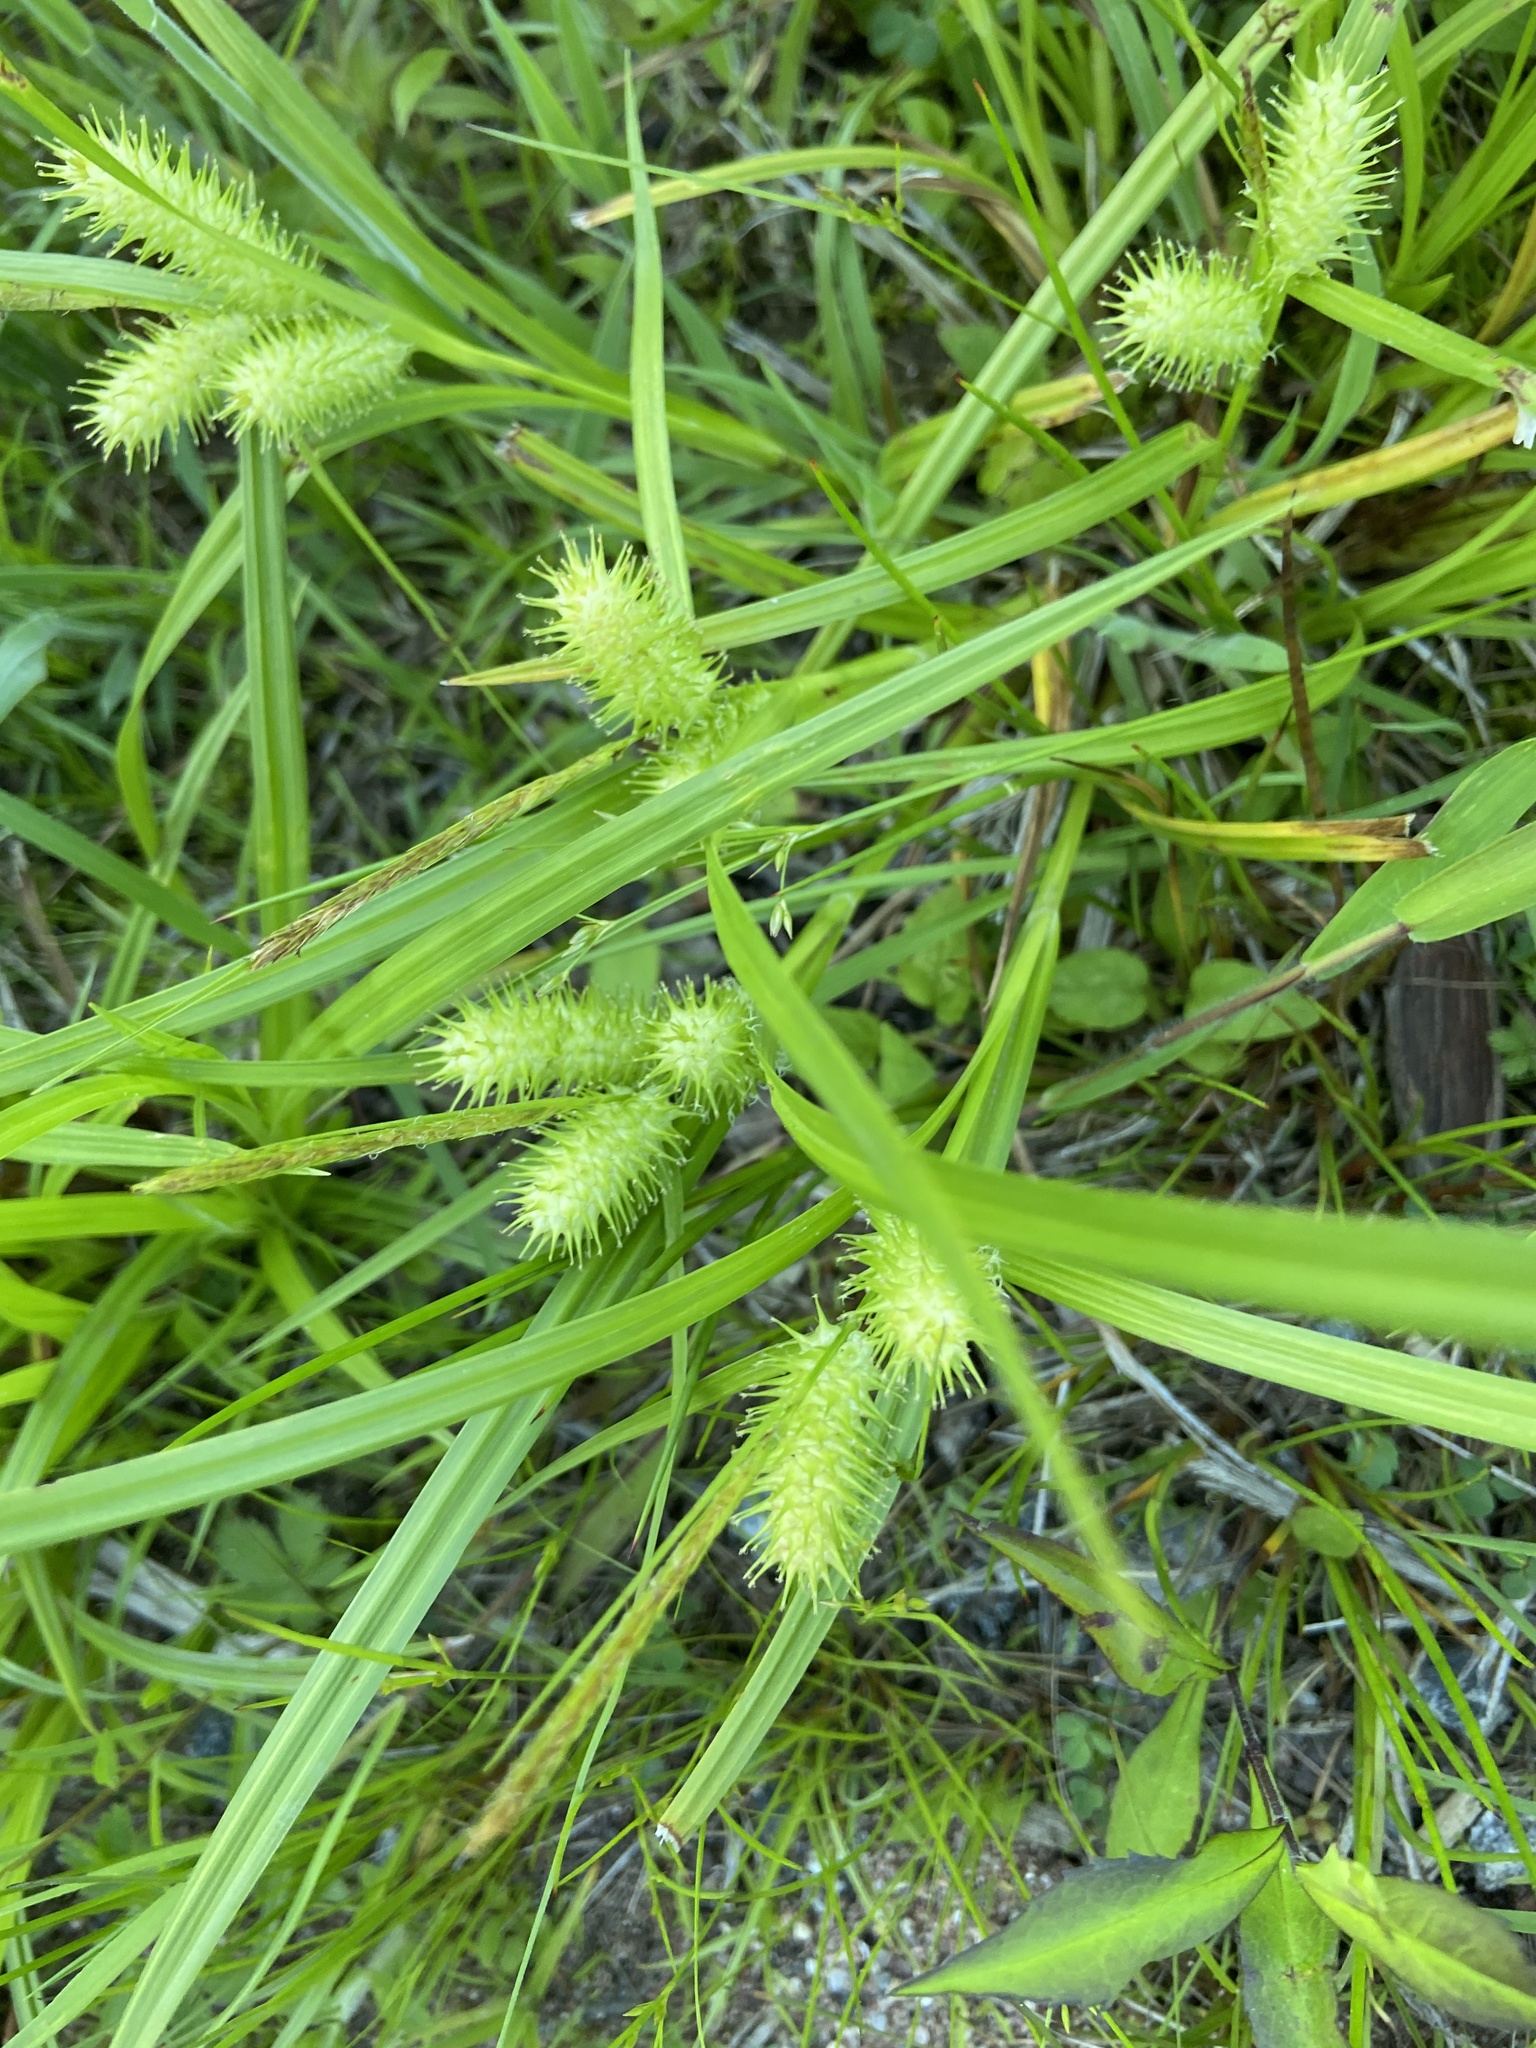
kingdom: Plantae
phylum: Tracheophyta
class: Liliopsida
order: Poales
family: Cyperaceae
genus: Carex
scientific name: Carex lurida
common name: Sallow sedge
